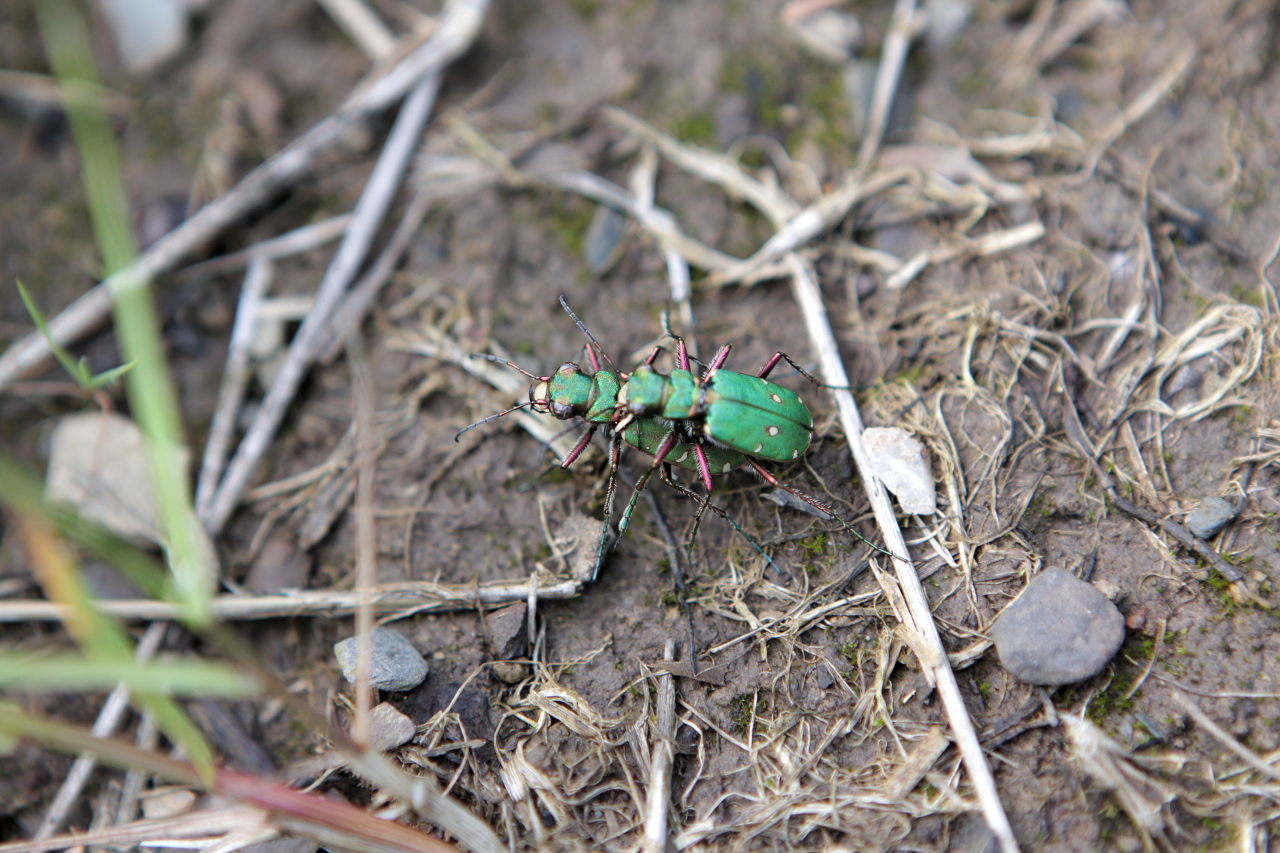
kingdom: Animalia
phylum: Arthropoda
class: Insecta
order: Coleoptera
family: Carabidae
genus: Cicindela
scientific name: Cicindela campestris
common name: Common tiger beetle
